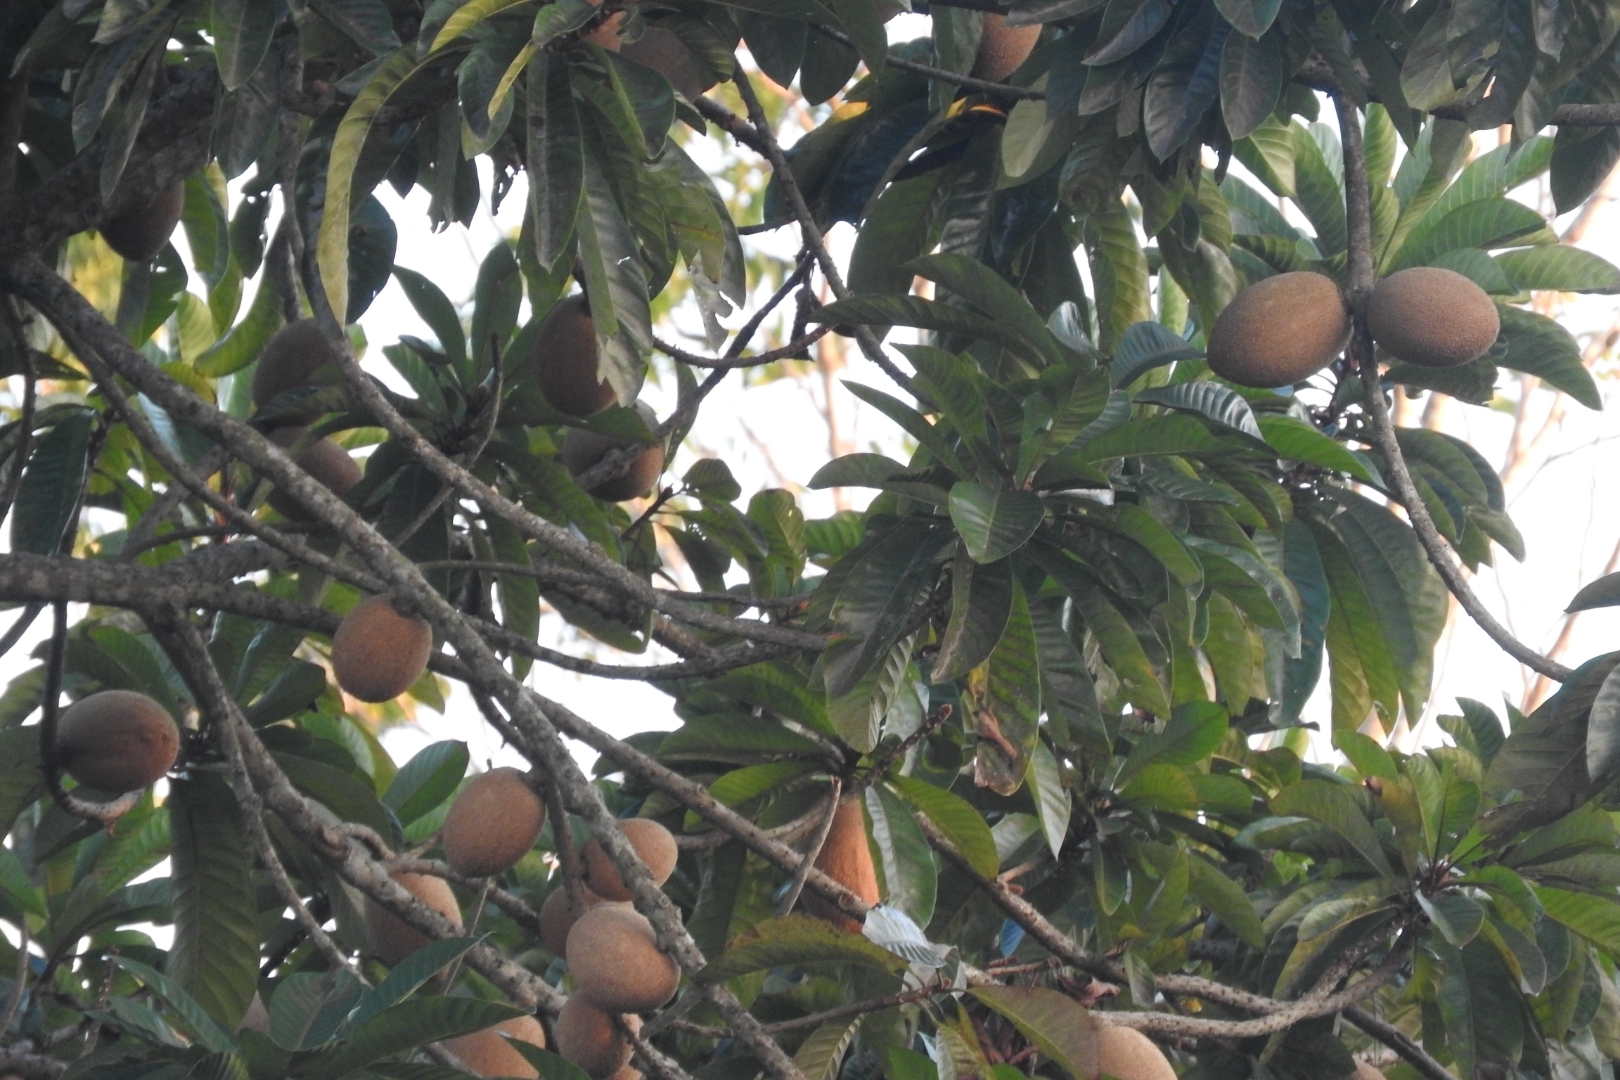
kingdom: Plantae
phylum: Tracheophyta
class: Magnoliopsida
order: Ericales
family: Sapotaceae
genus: Pouteria
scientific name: Pouteria sapota
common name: Mamey
